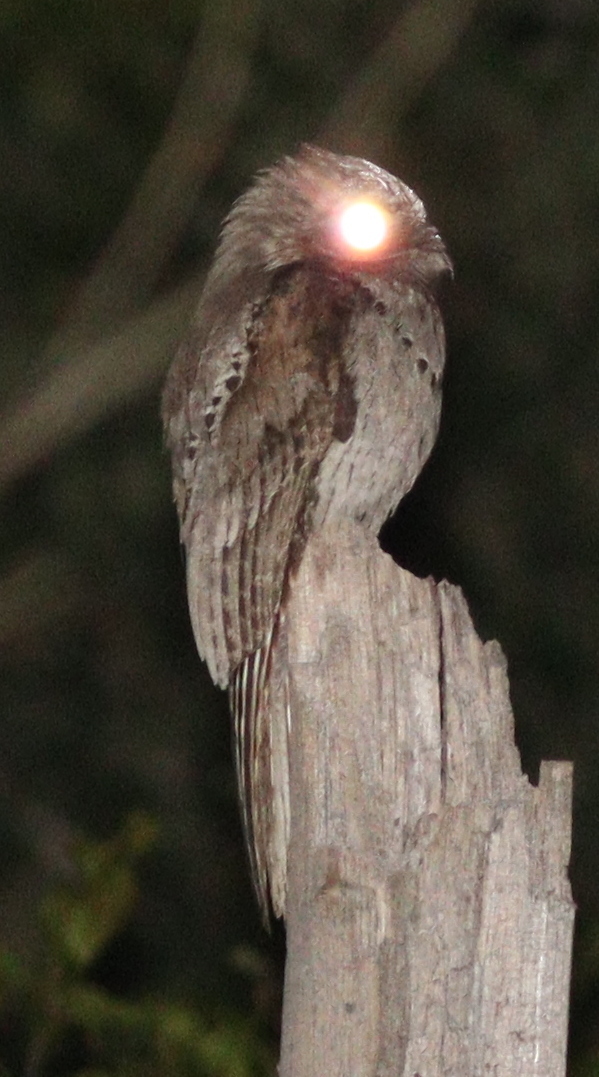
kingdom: Animalia
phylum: Chordata
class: Aves
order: Nyctibiiformes
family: Nyctibiidae
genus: Nyctibius
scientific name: Nyctibius griseus
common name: Common potoo
